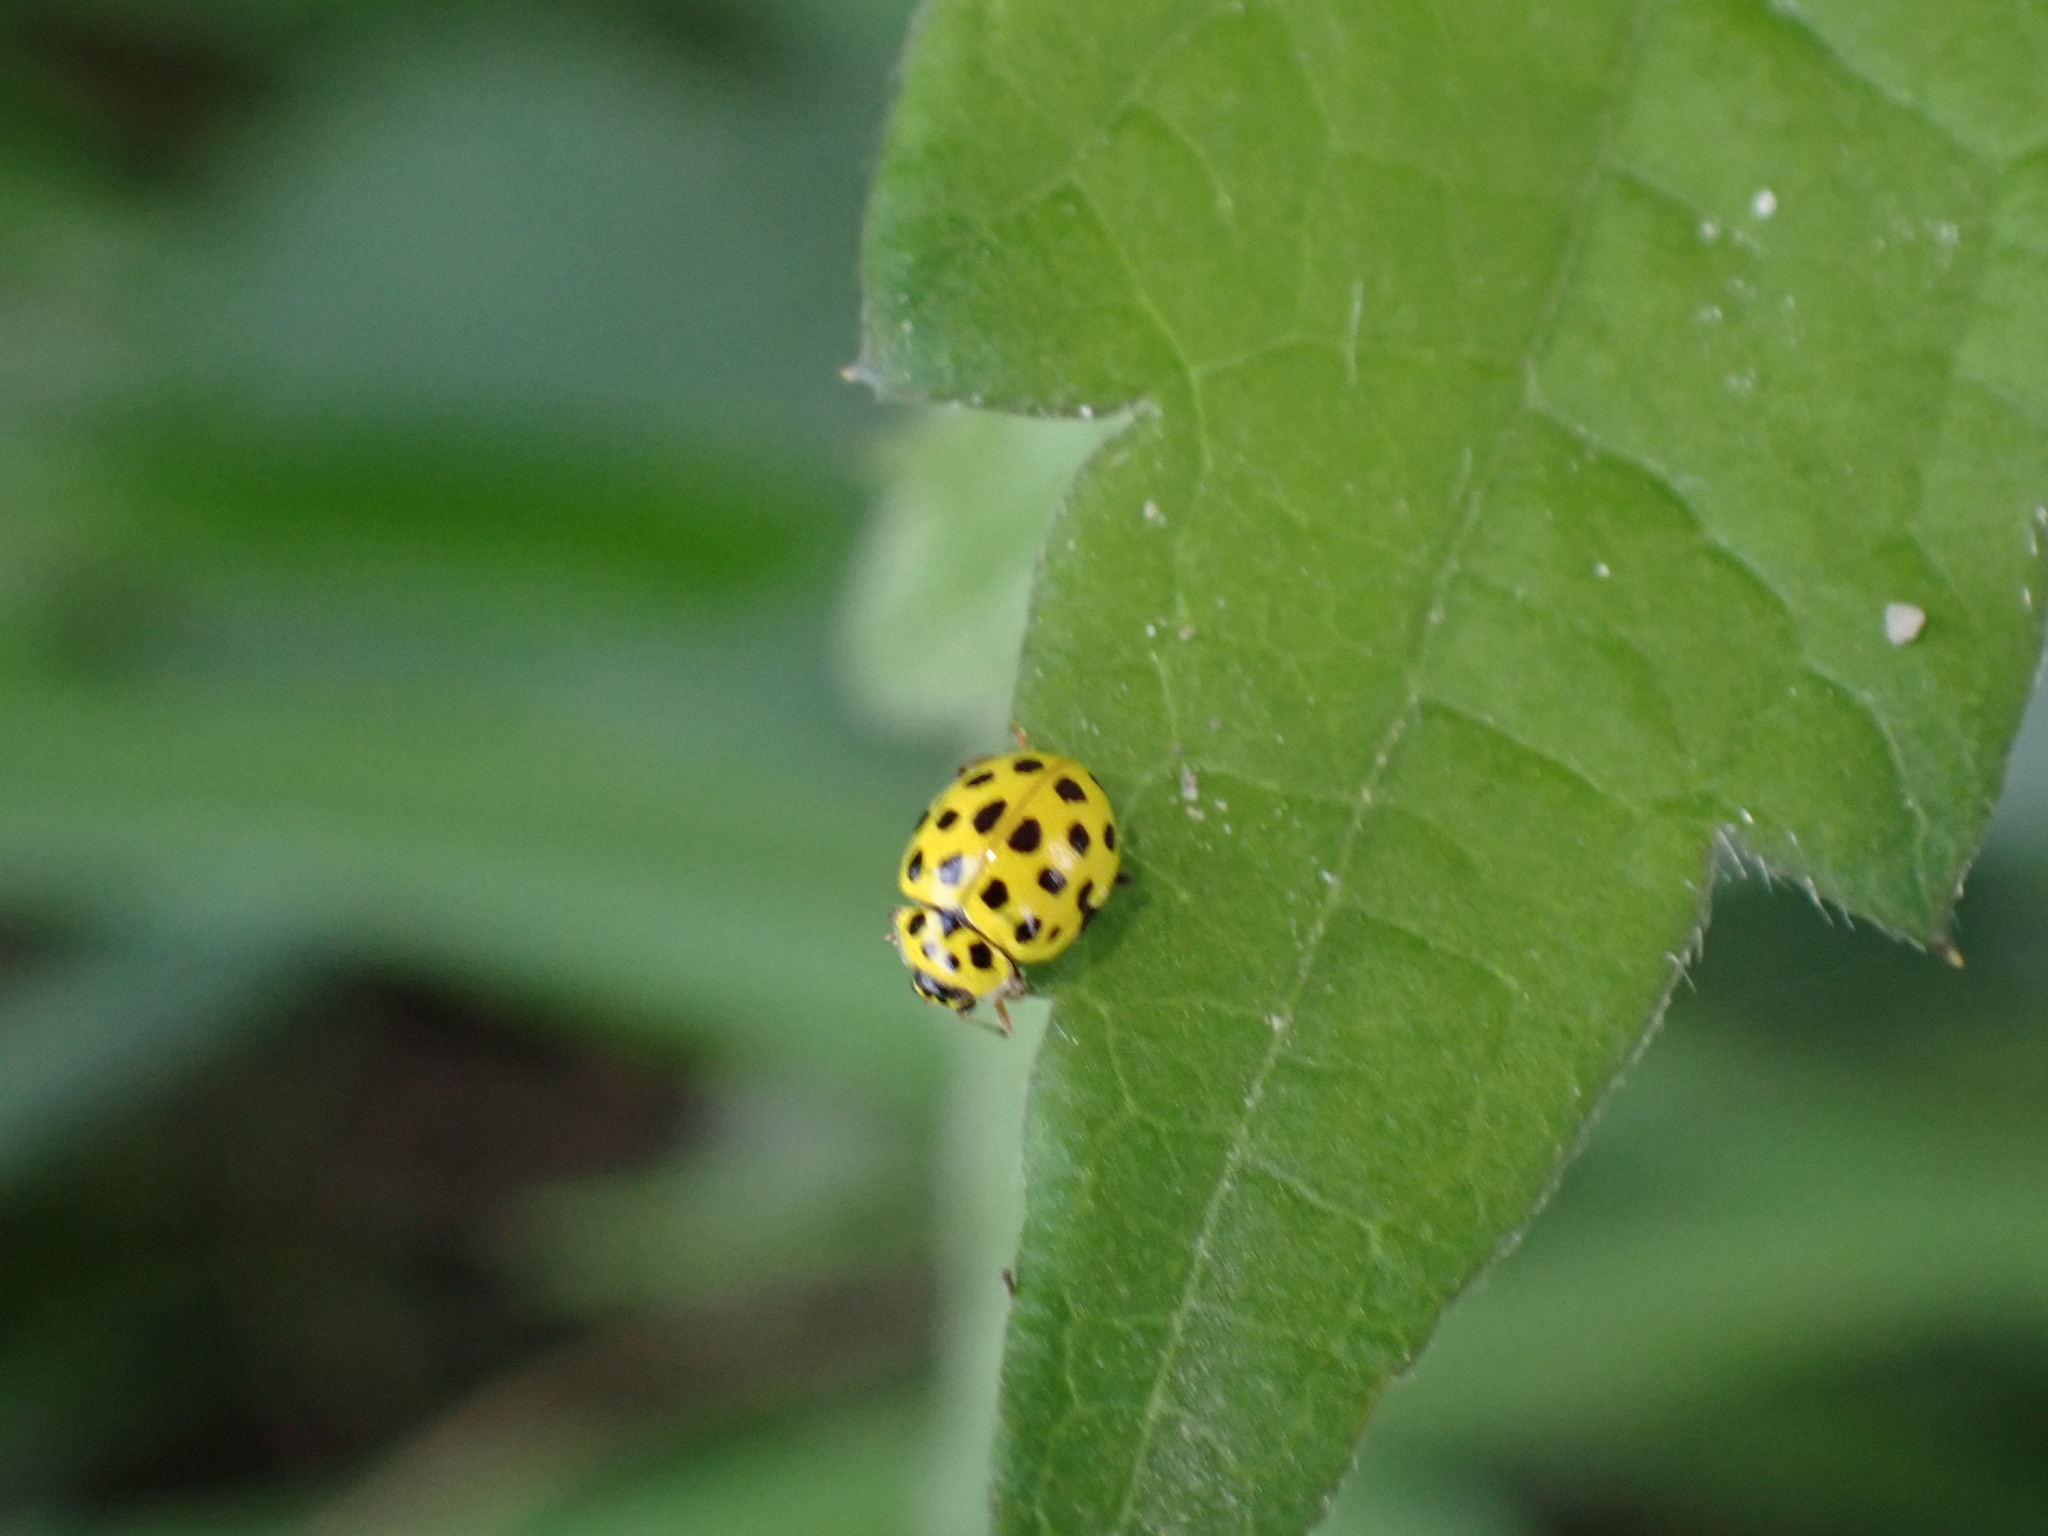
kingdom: Animalia
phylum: Arthropoda
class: Insecta
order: Coleoptera
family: Coccinellidae
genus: Psyllobora
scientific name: Psyllobora vigintiduopunctata
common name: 22-spot ladybird
